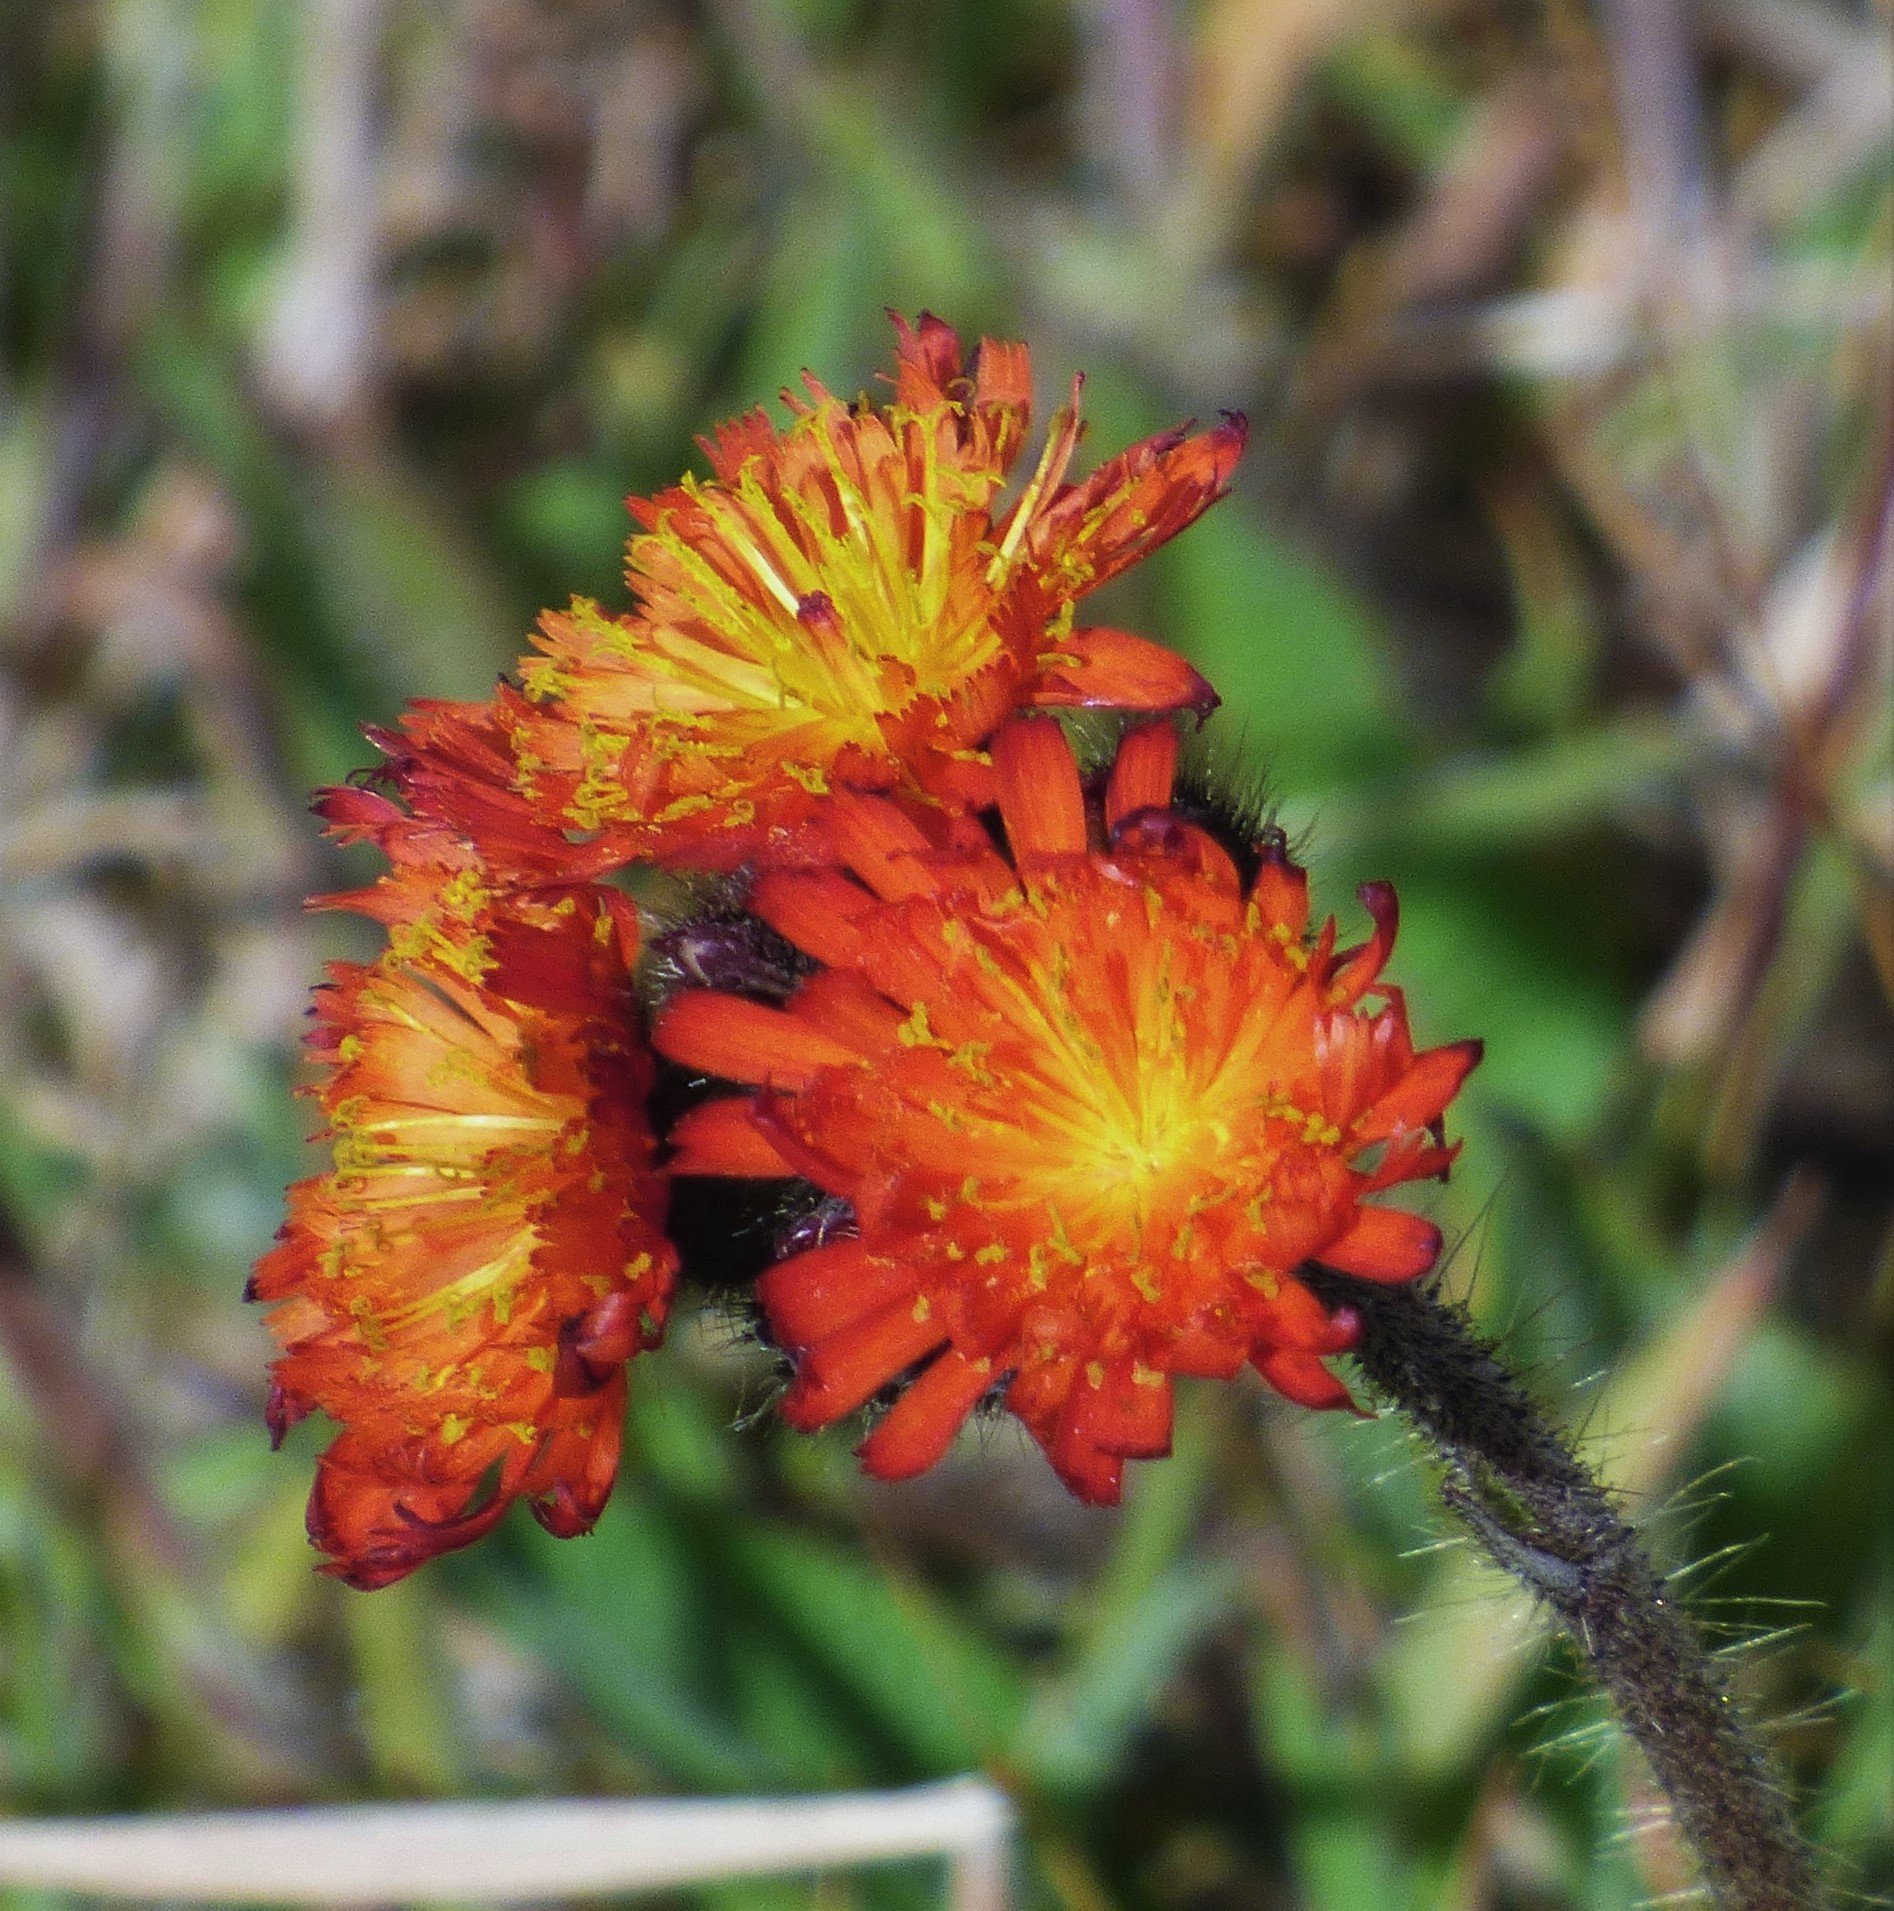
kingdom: Plantae
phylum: Tracheophyta
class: Magnoliopsida
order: Asterales
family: Asteraceae
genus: Pilosella
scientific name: Pilosella aurantiaca
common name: Fox-and-cubs
